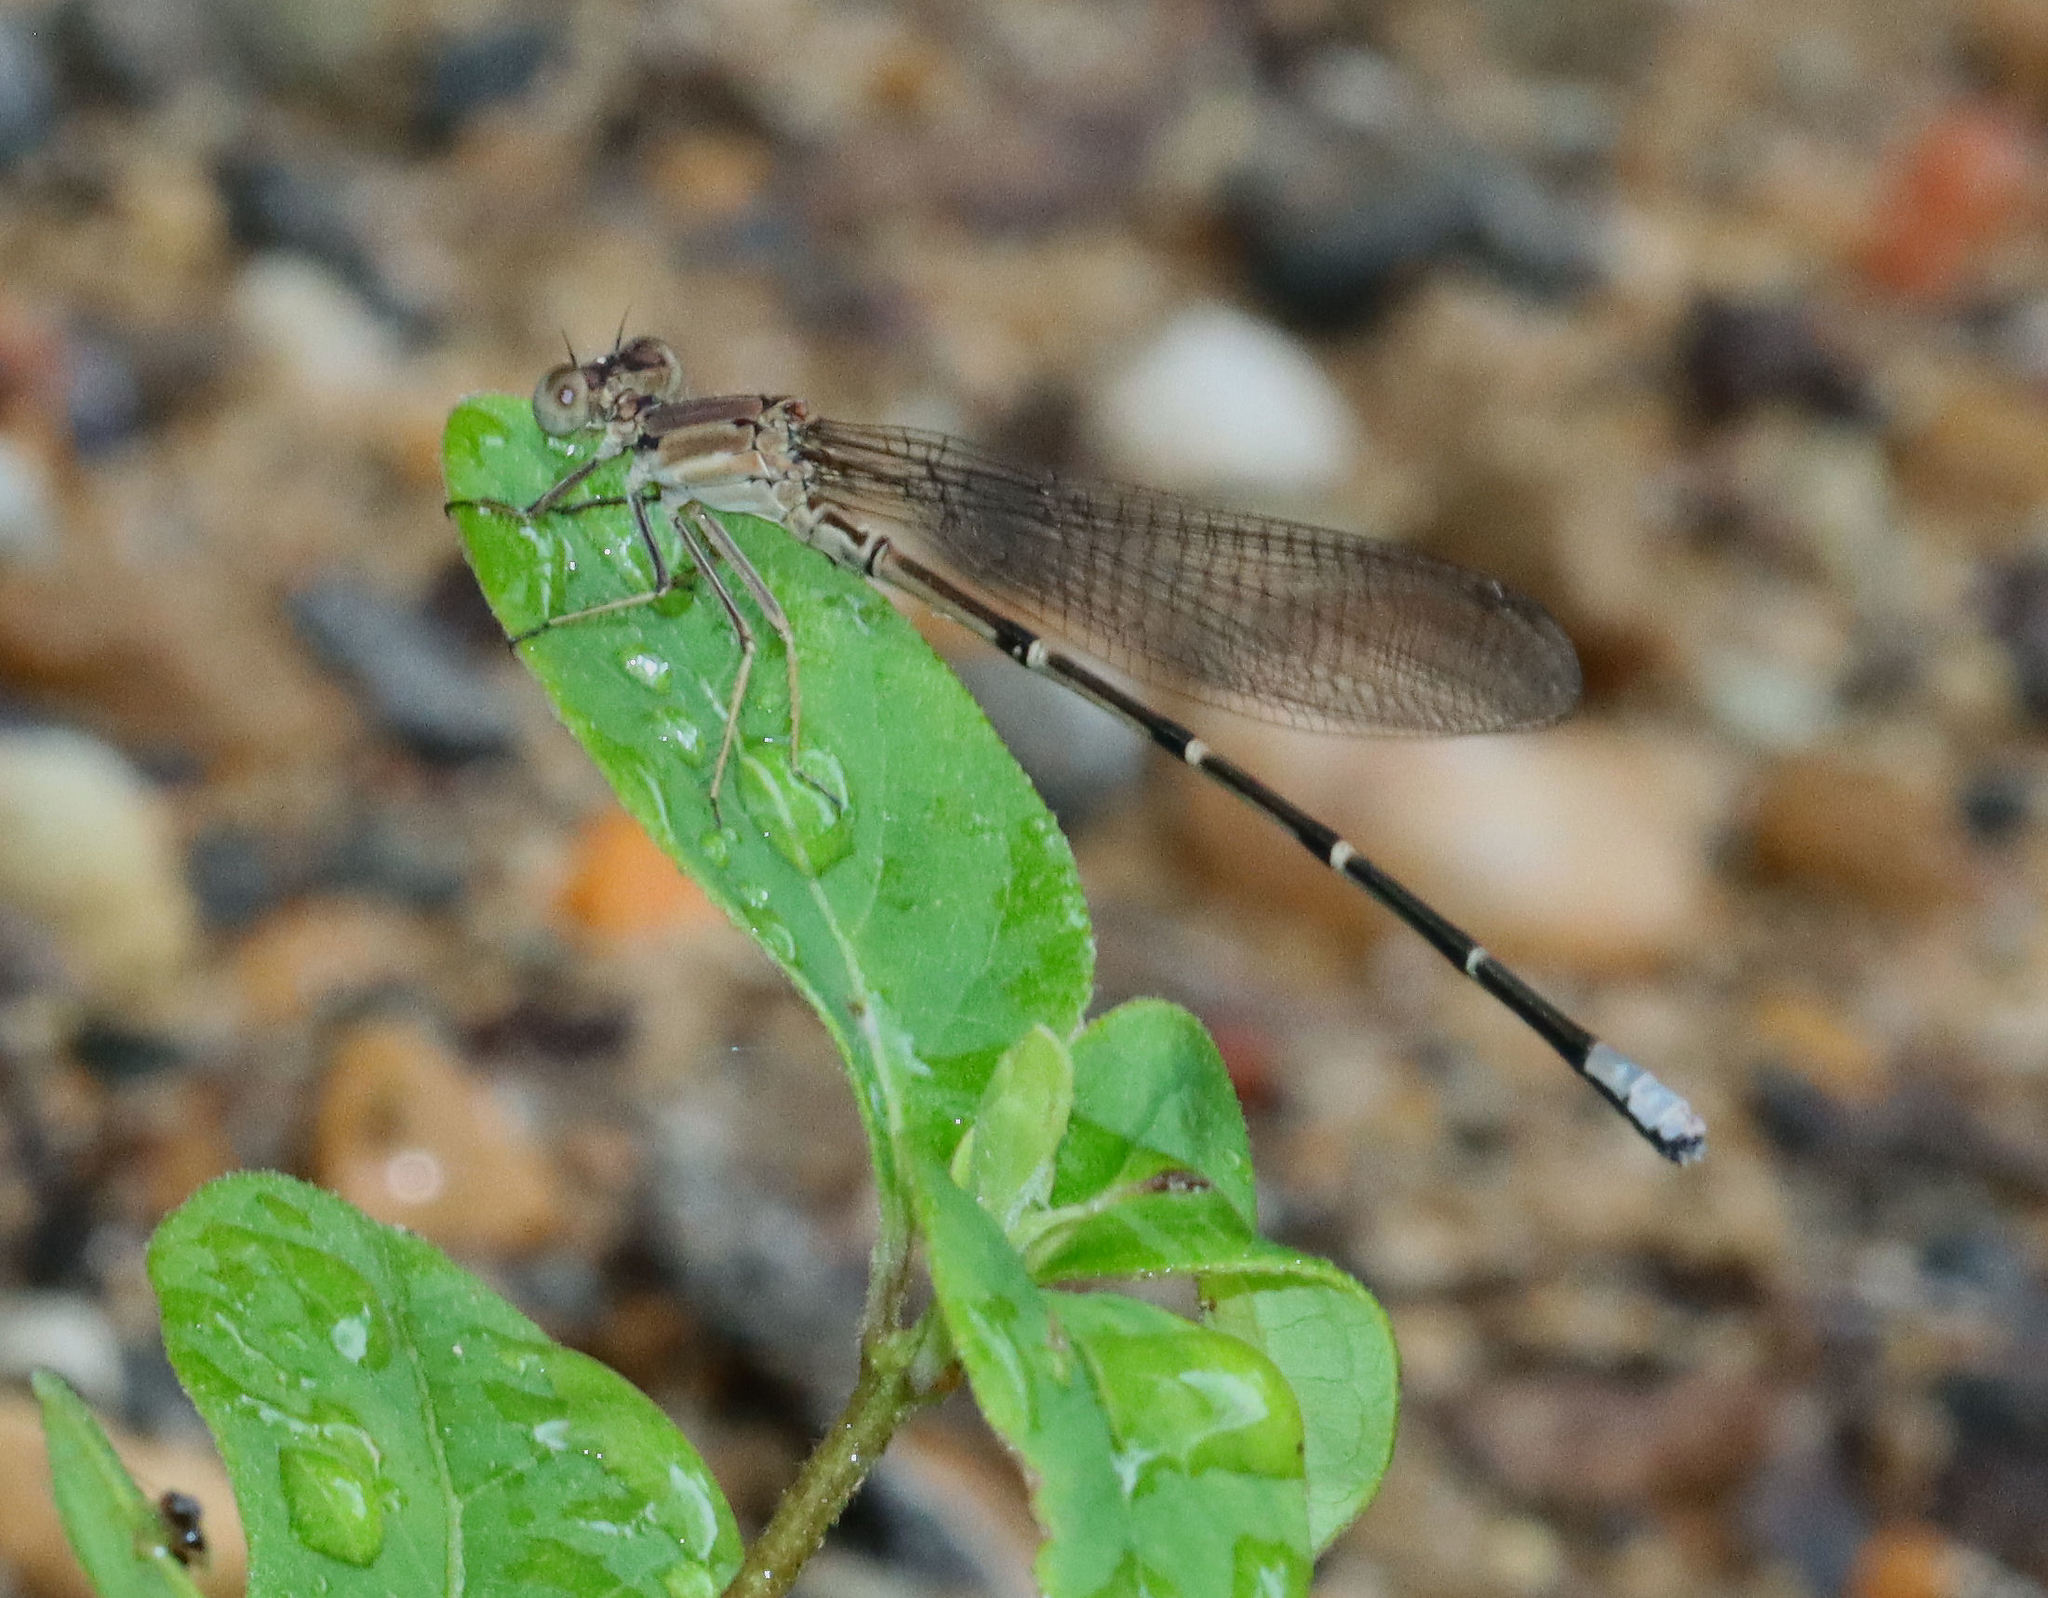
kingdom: Animalia
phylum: Arthropoda
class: Insecta
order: Odonata
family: Coenagrionidae
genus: Argia
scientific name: Argia apicalis
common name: Blue-fronted dancer
